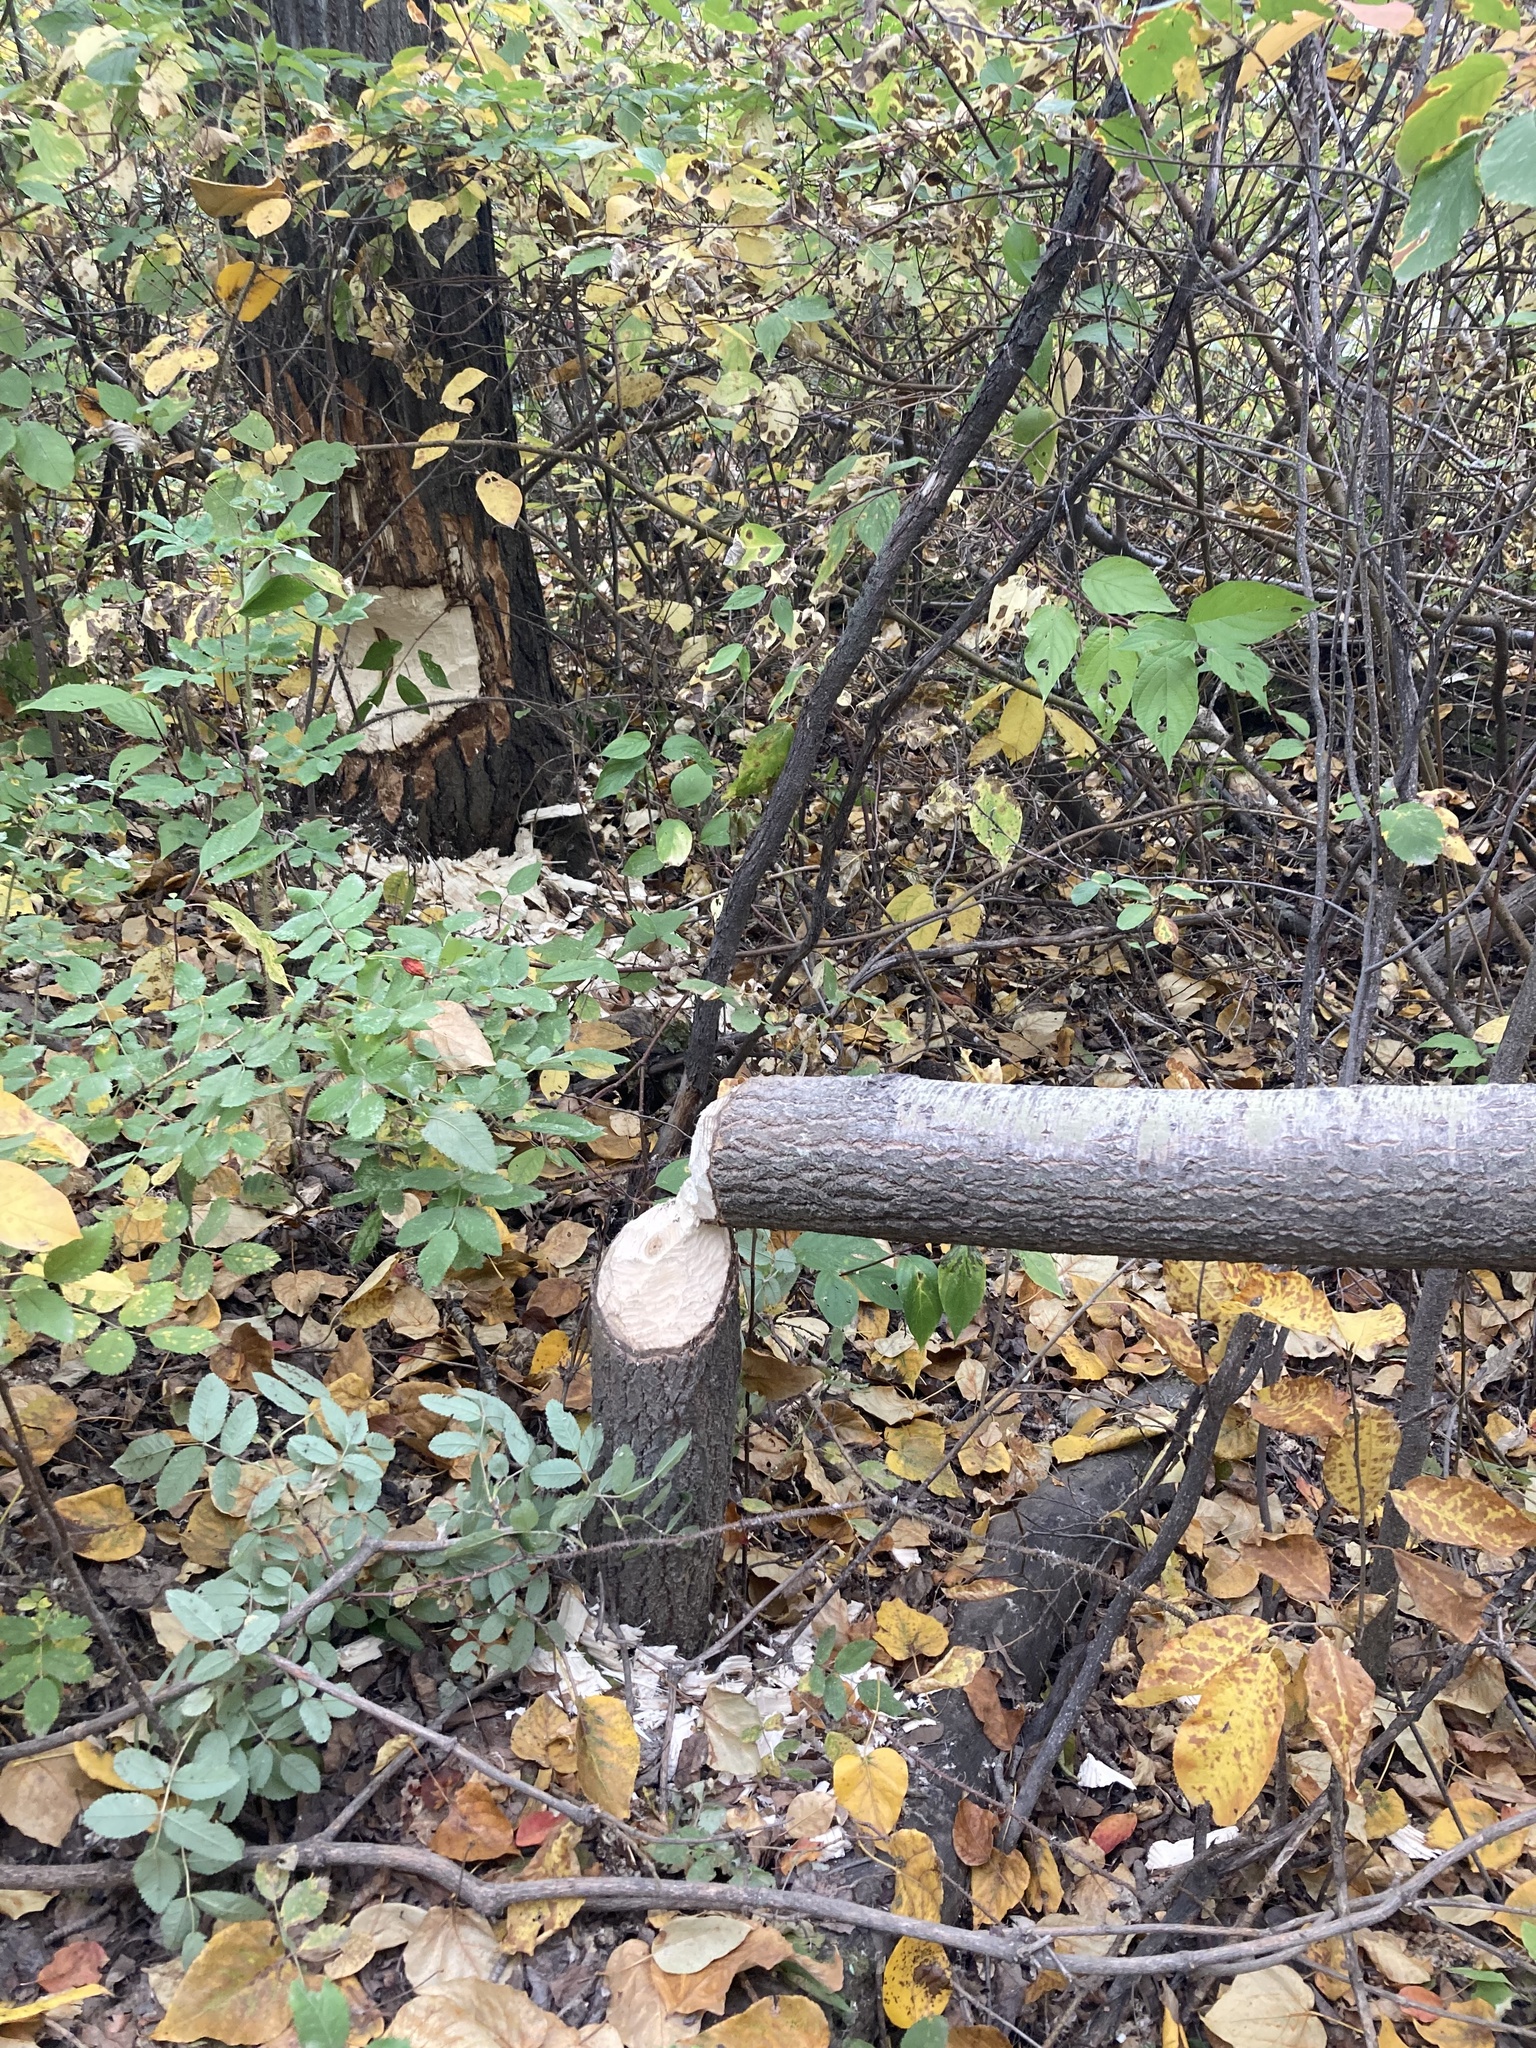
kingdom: Animalia
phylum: Chordata
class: Mammalia
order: Rodentia
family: Castoridae
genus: Castor
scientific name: Castor canadensis
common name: American beaver
